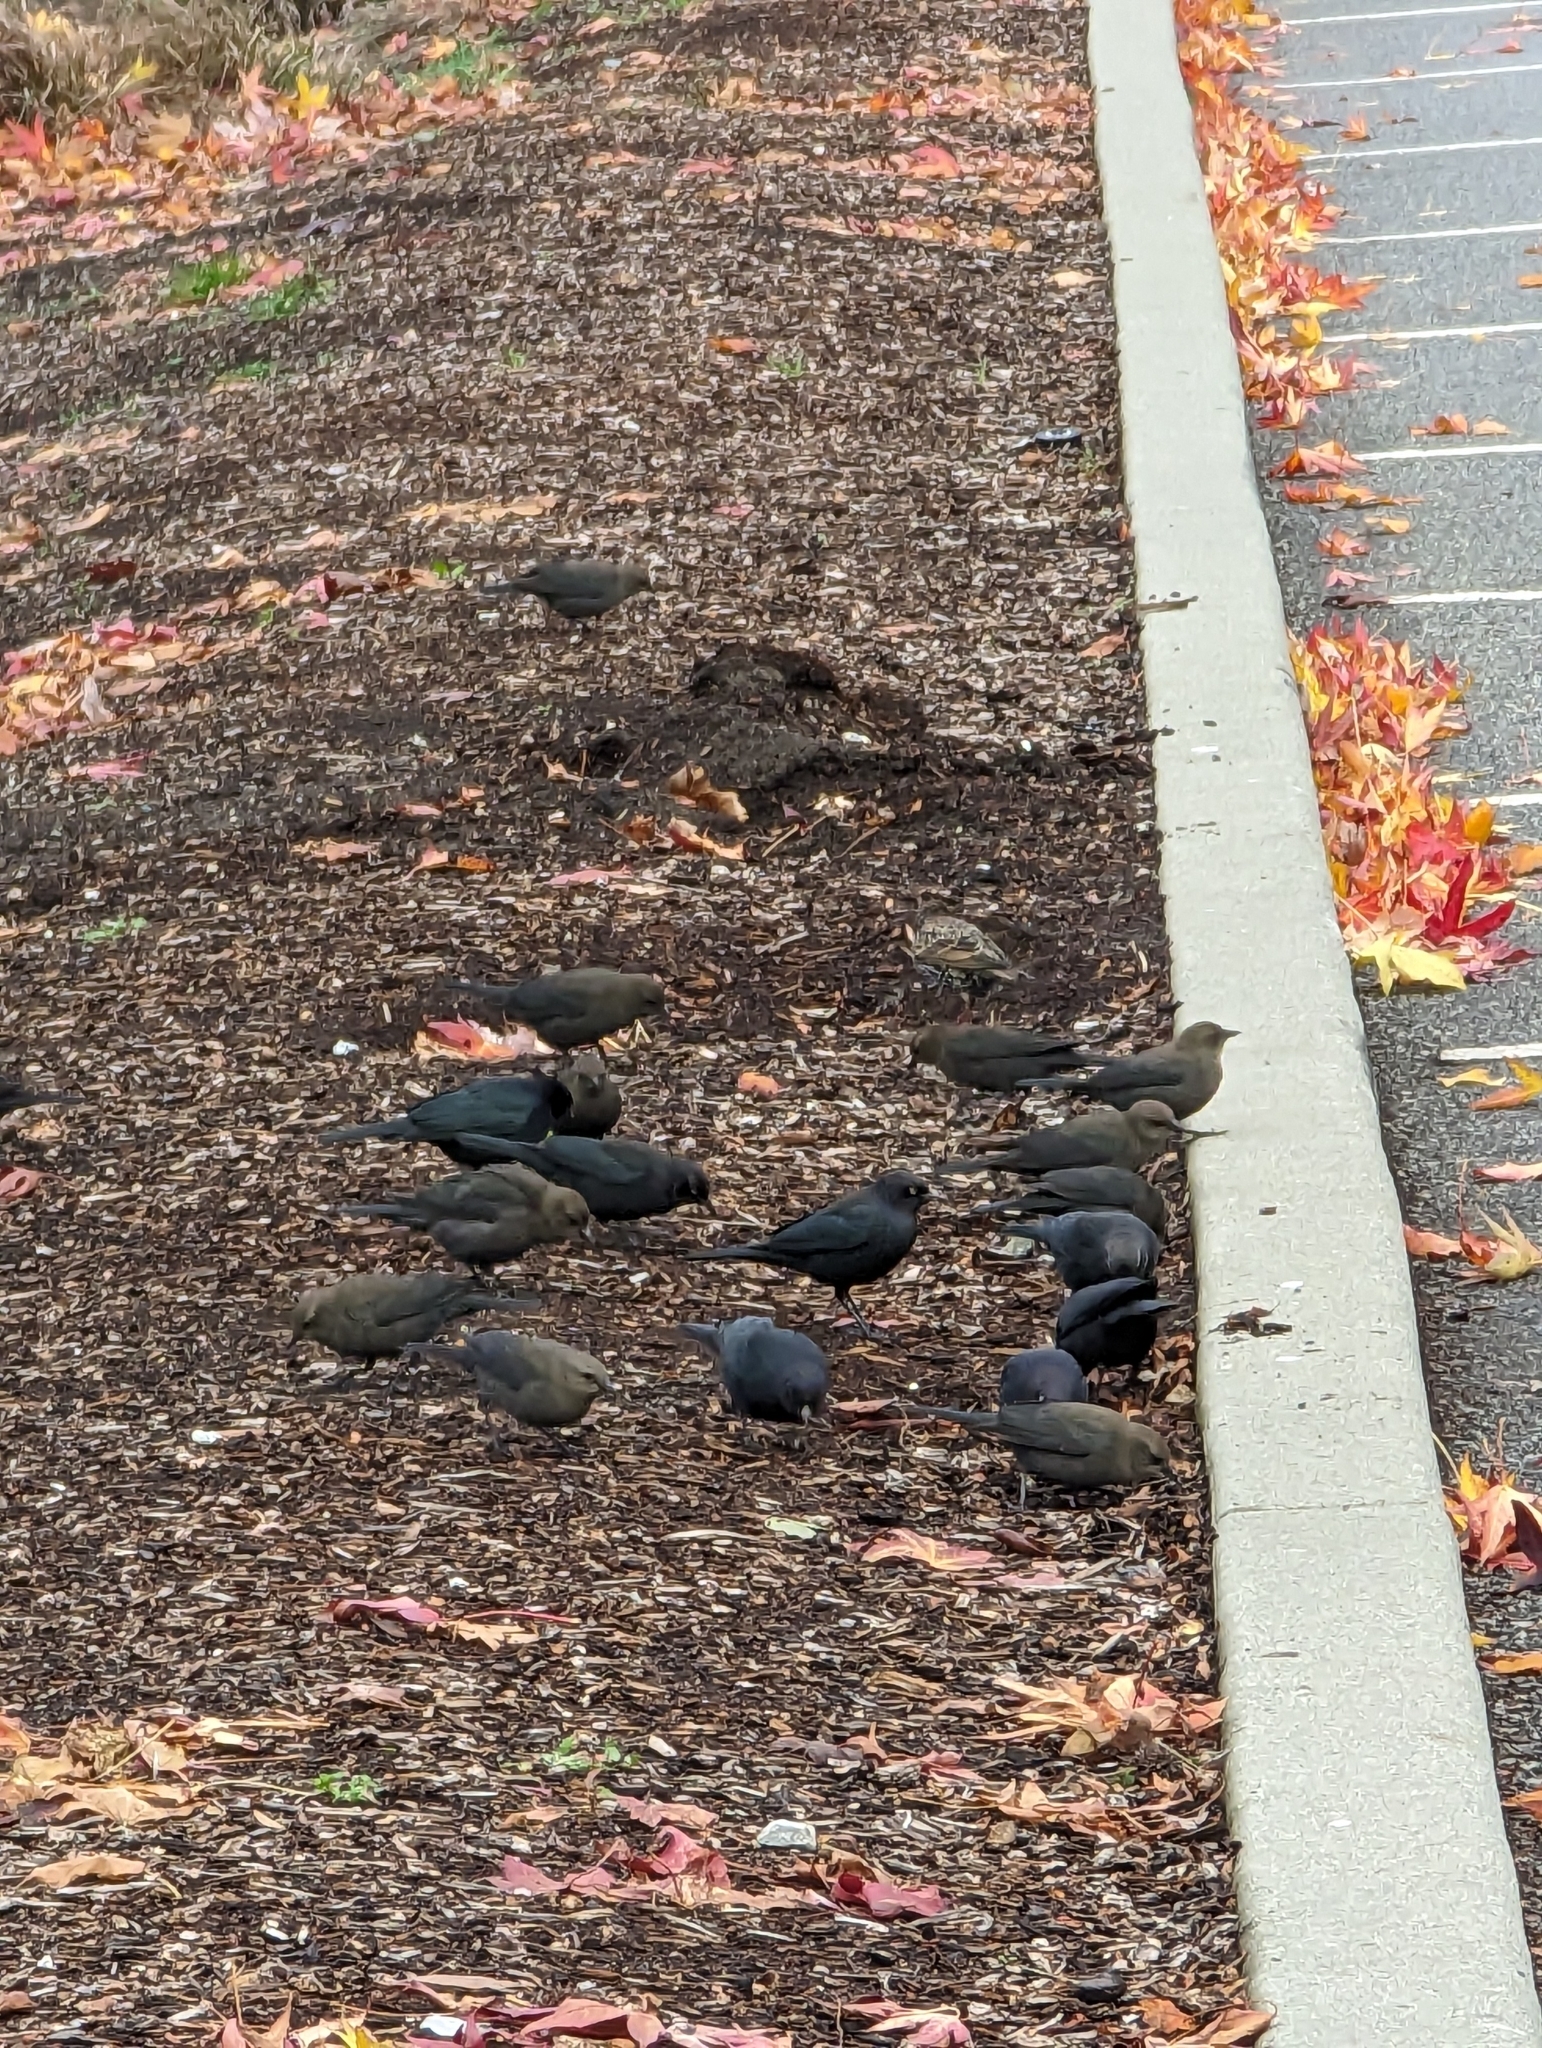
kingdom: Animalia
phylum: Chordata
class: Aves
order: Passeriformes
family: Icteridae
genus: Euphagus
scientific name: Euphagus cyanocephalus
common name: Brewer's blackbird
